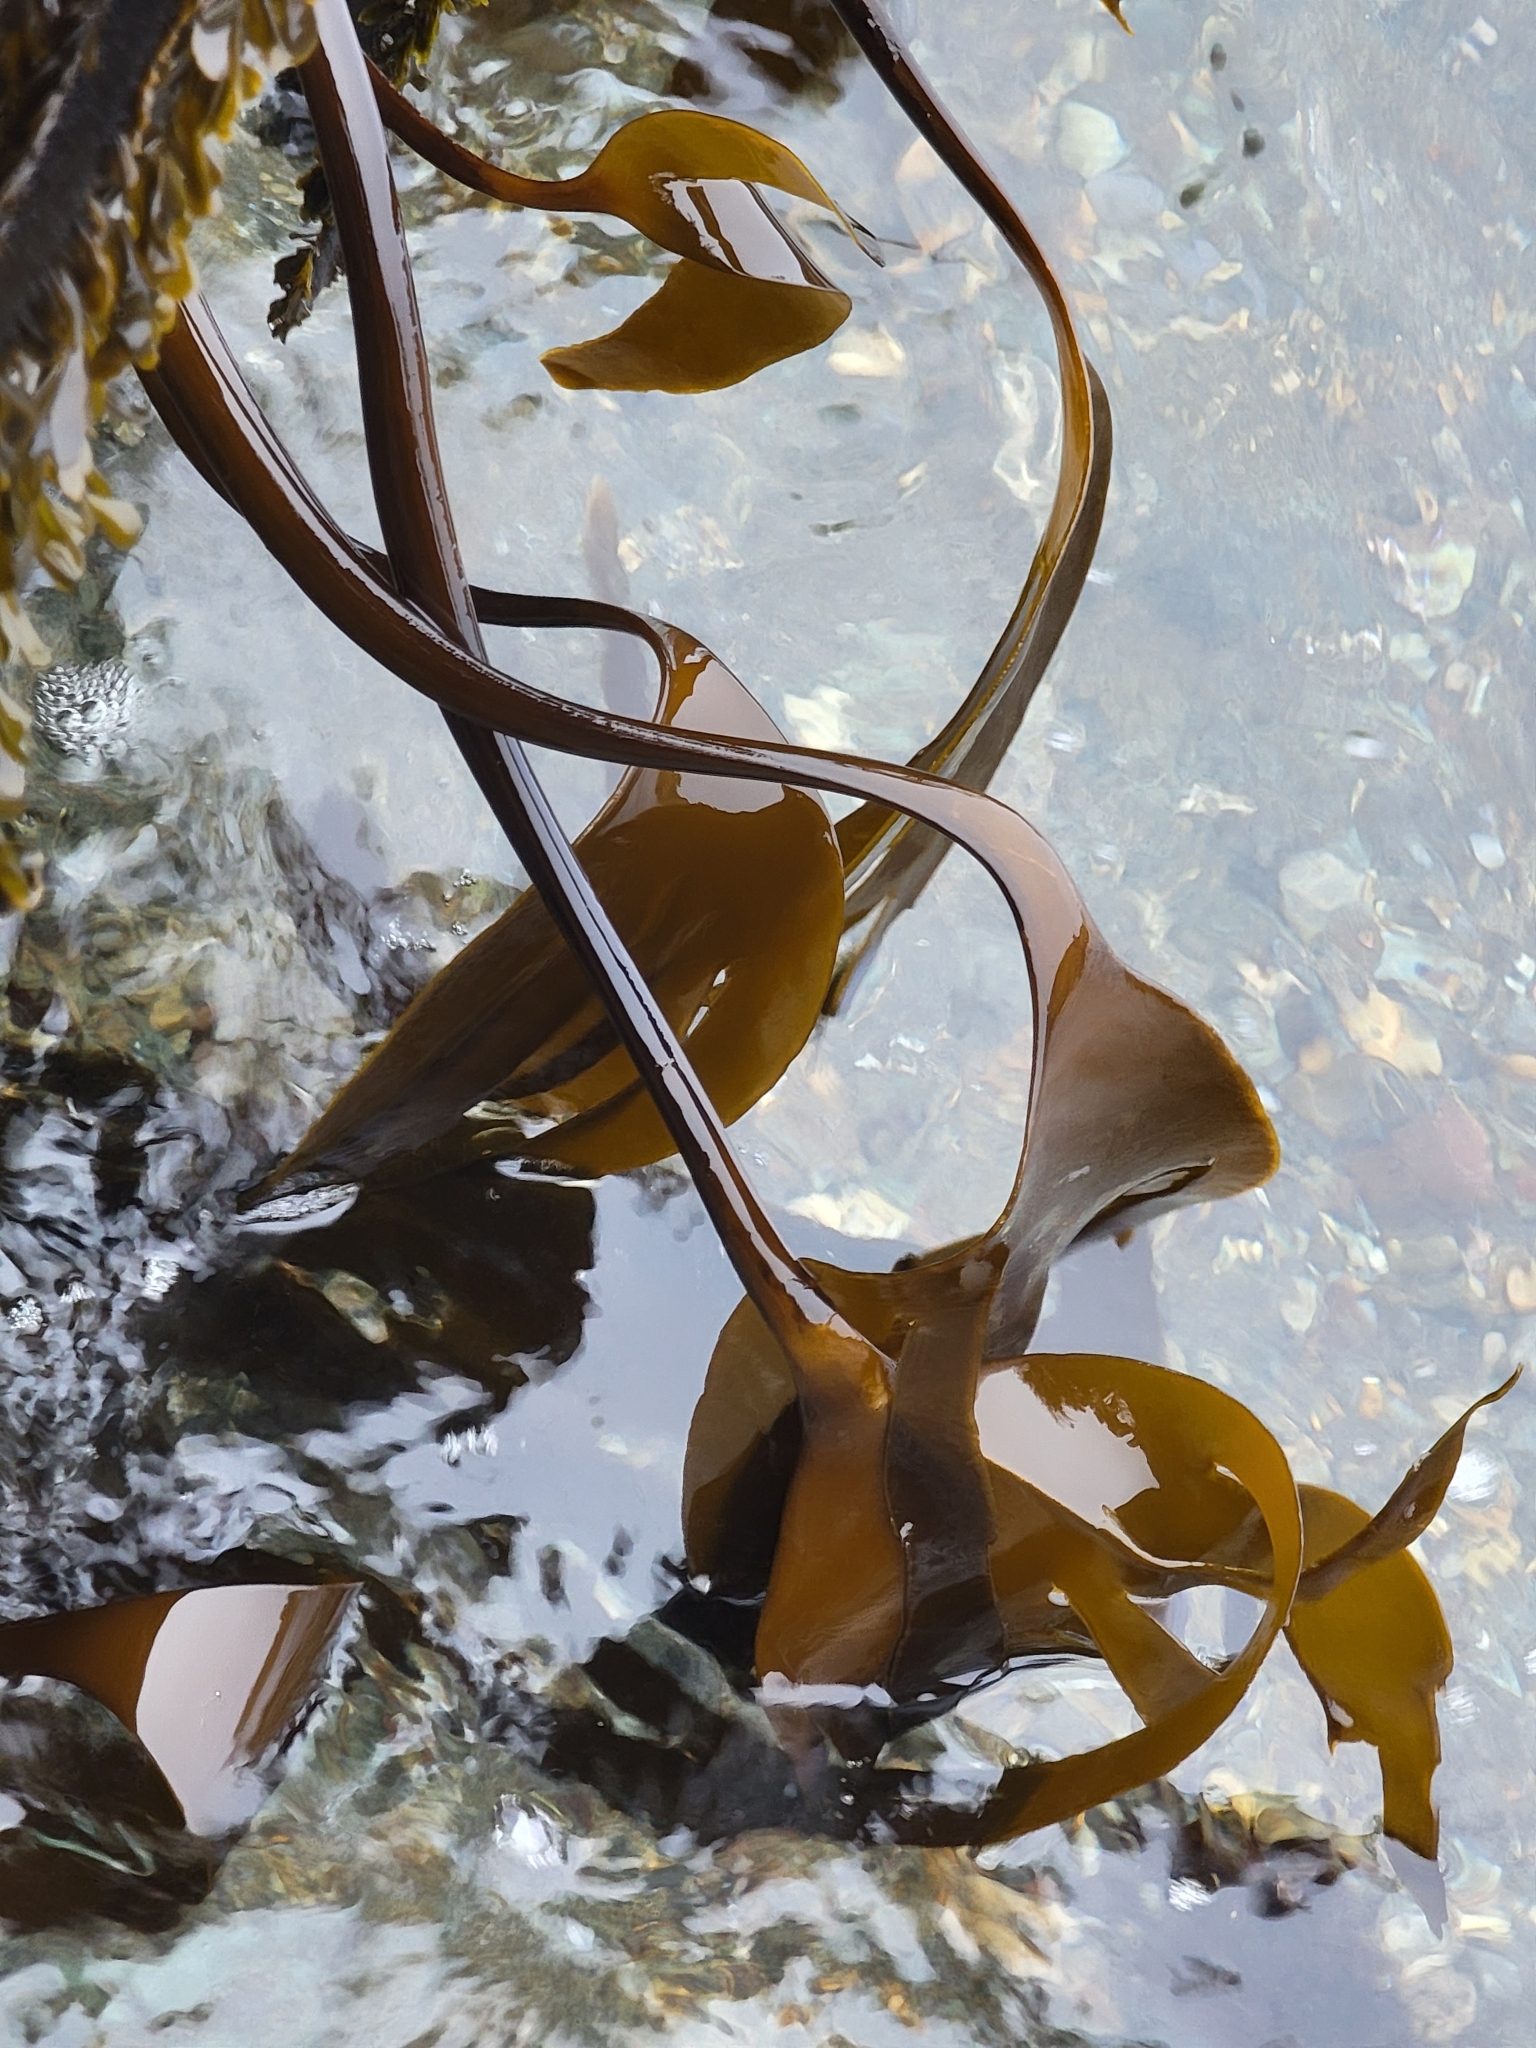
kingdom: Chromista
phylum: Ochrophyta
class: Phaeophyceae
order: Laminariales
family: Laminariaceae
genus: Laminaria
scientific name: Laminaria setchellii
